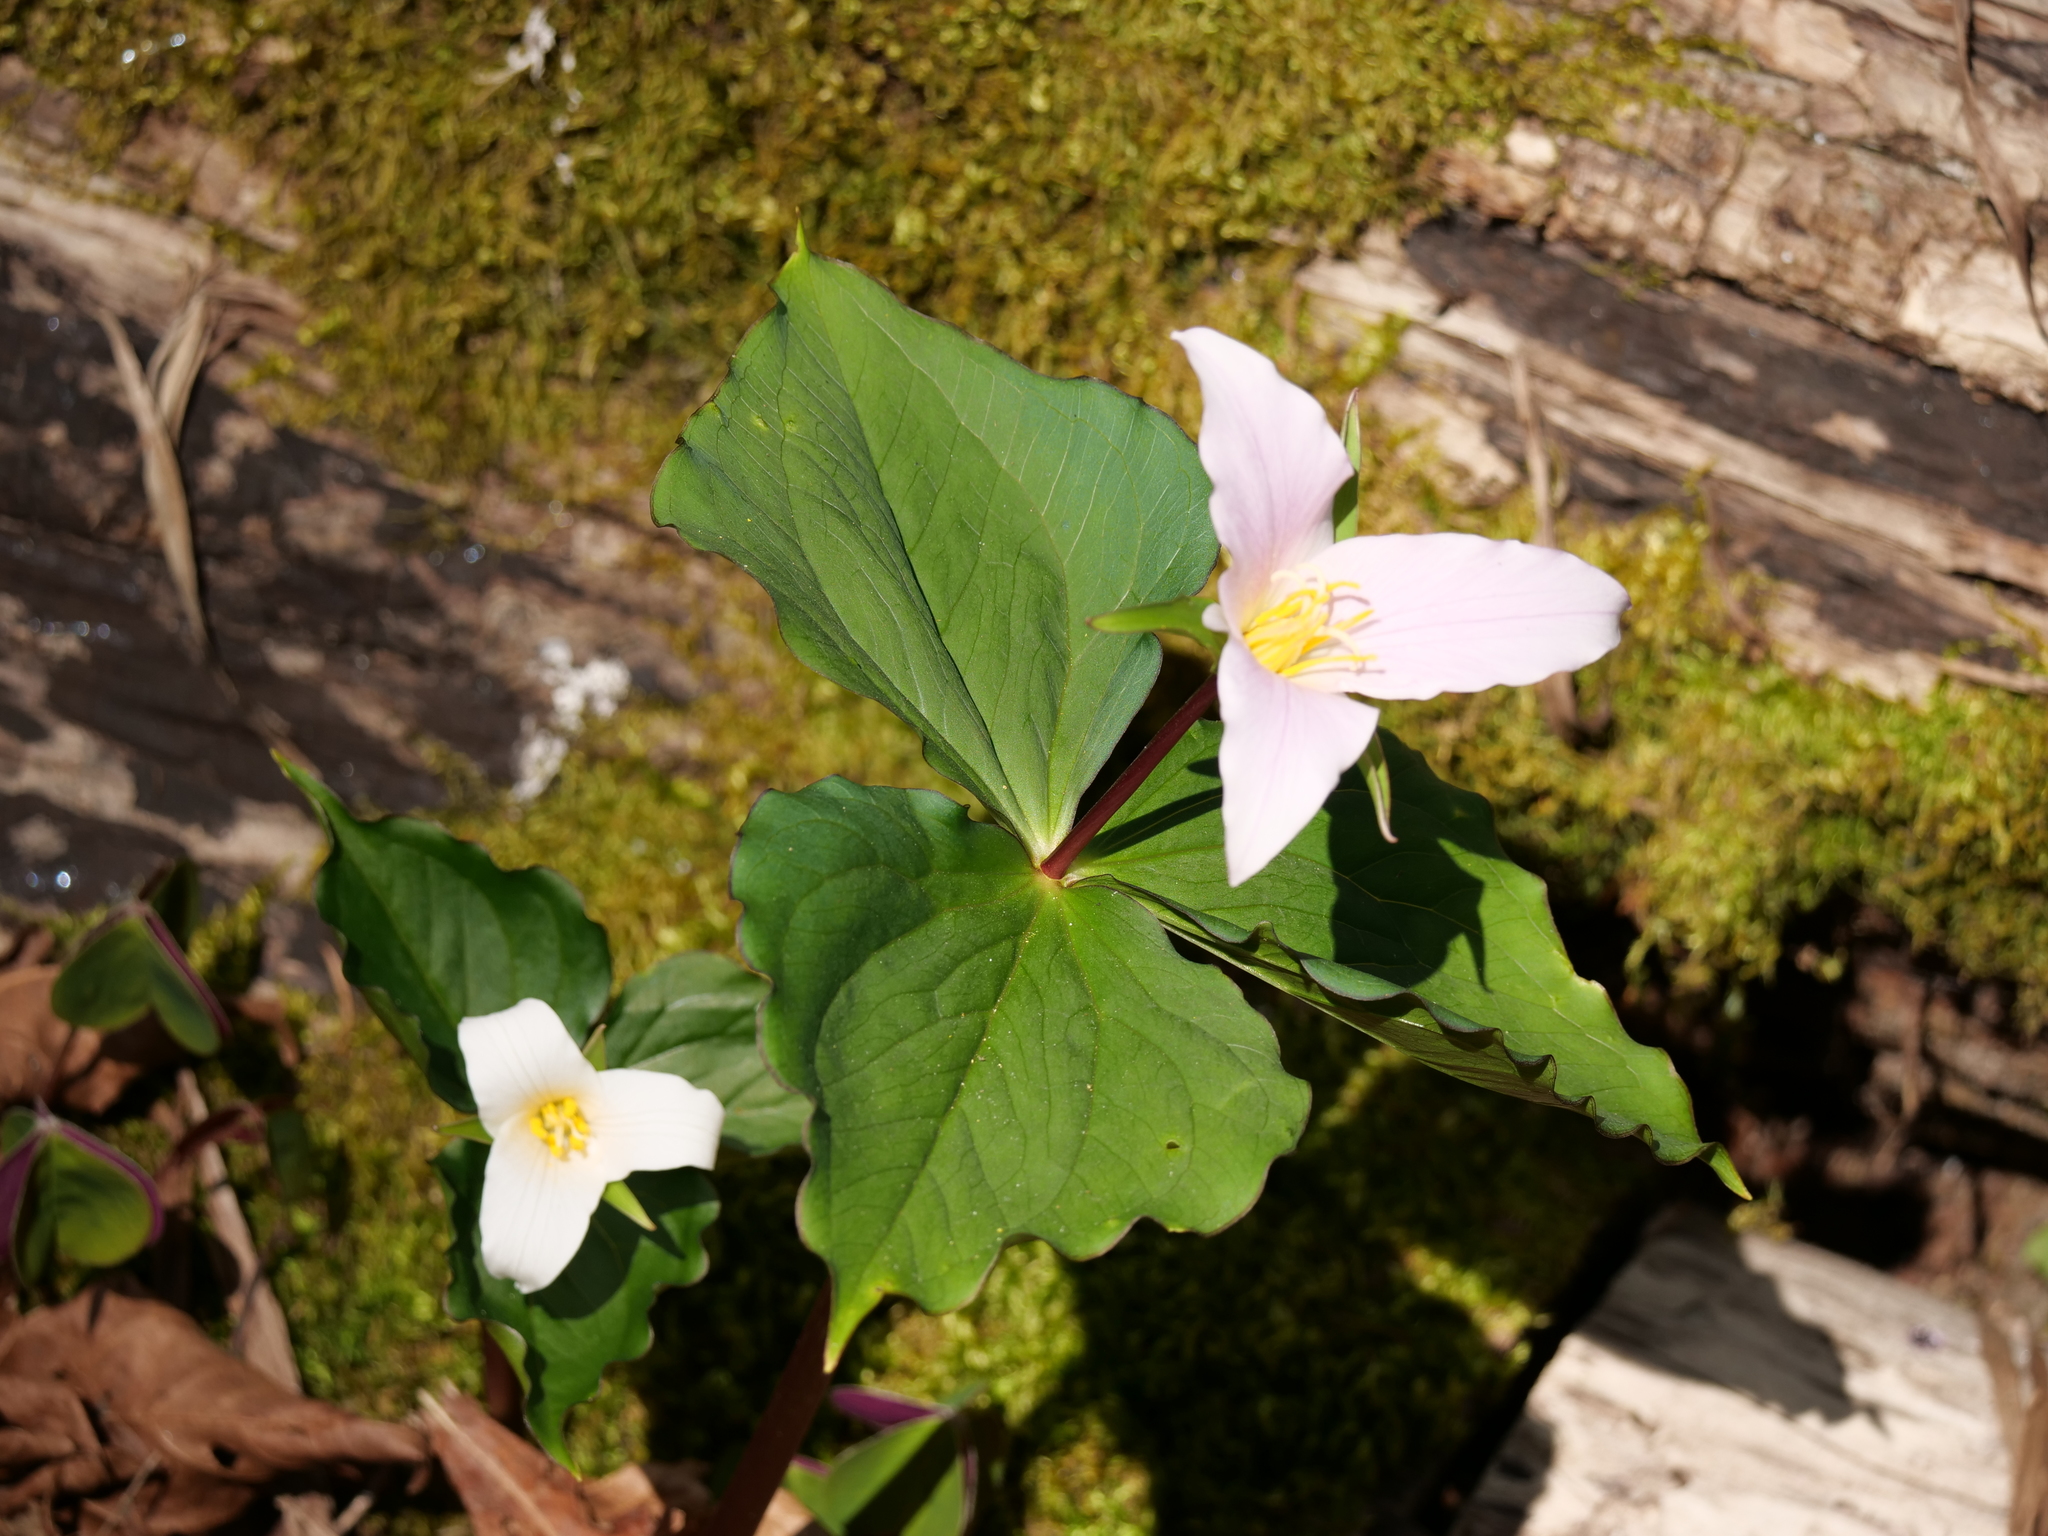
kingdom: Plantae
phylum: Tracheophyta
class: Liliopsida
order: Liliales
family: Melanthiaceae
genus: Trillium
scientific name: Trillium ovatum
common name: Pacific trillium
